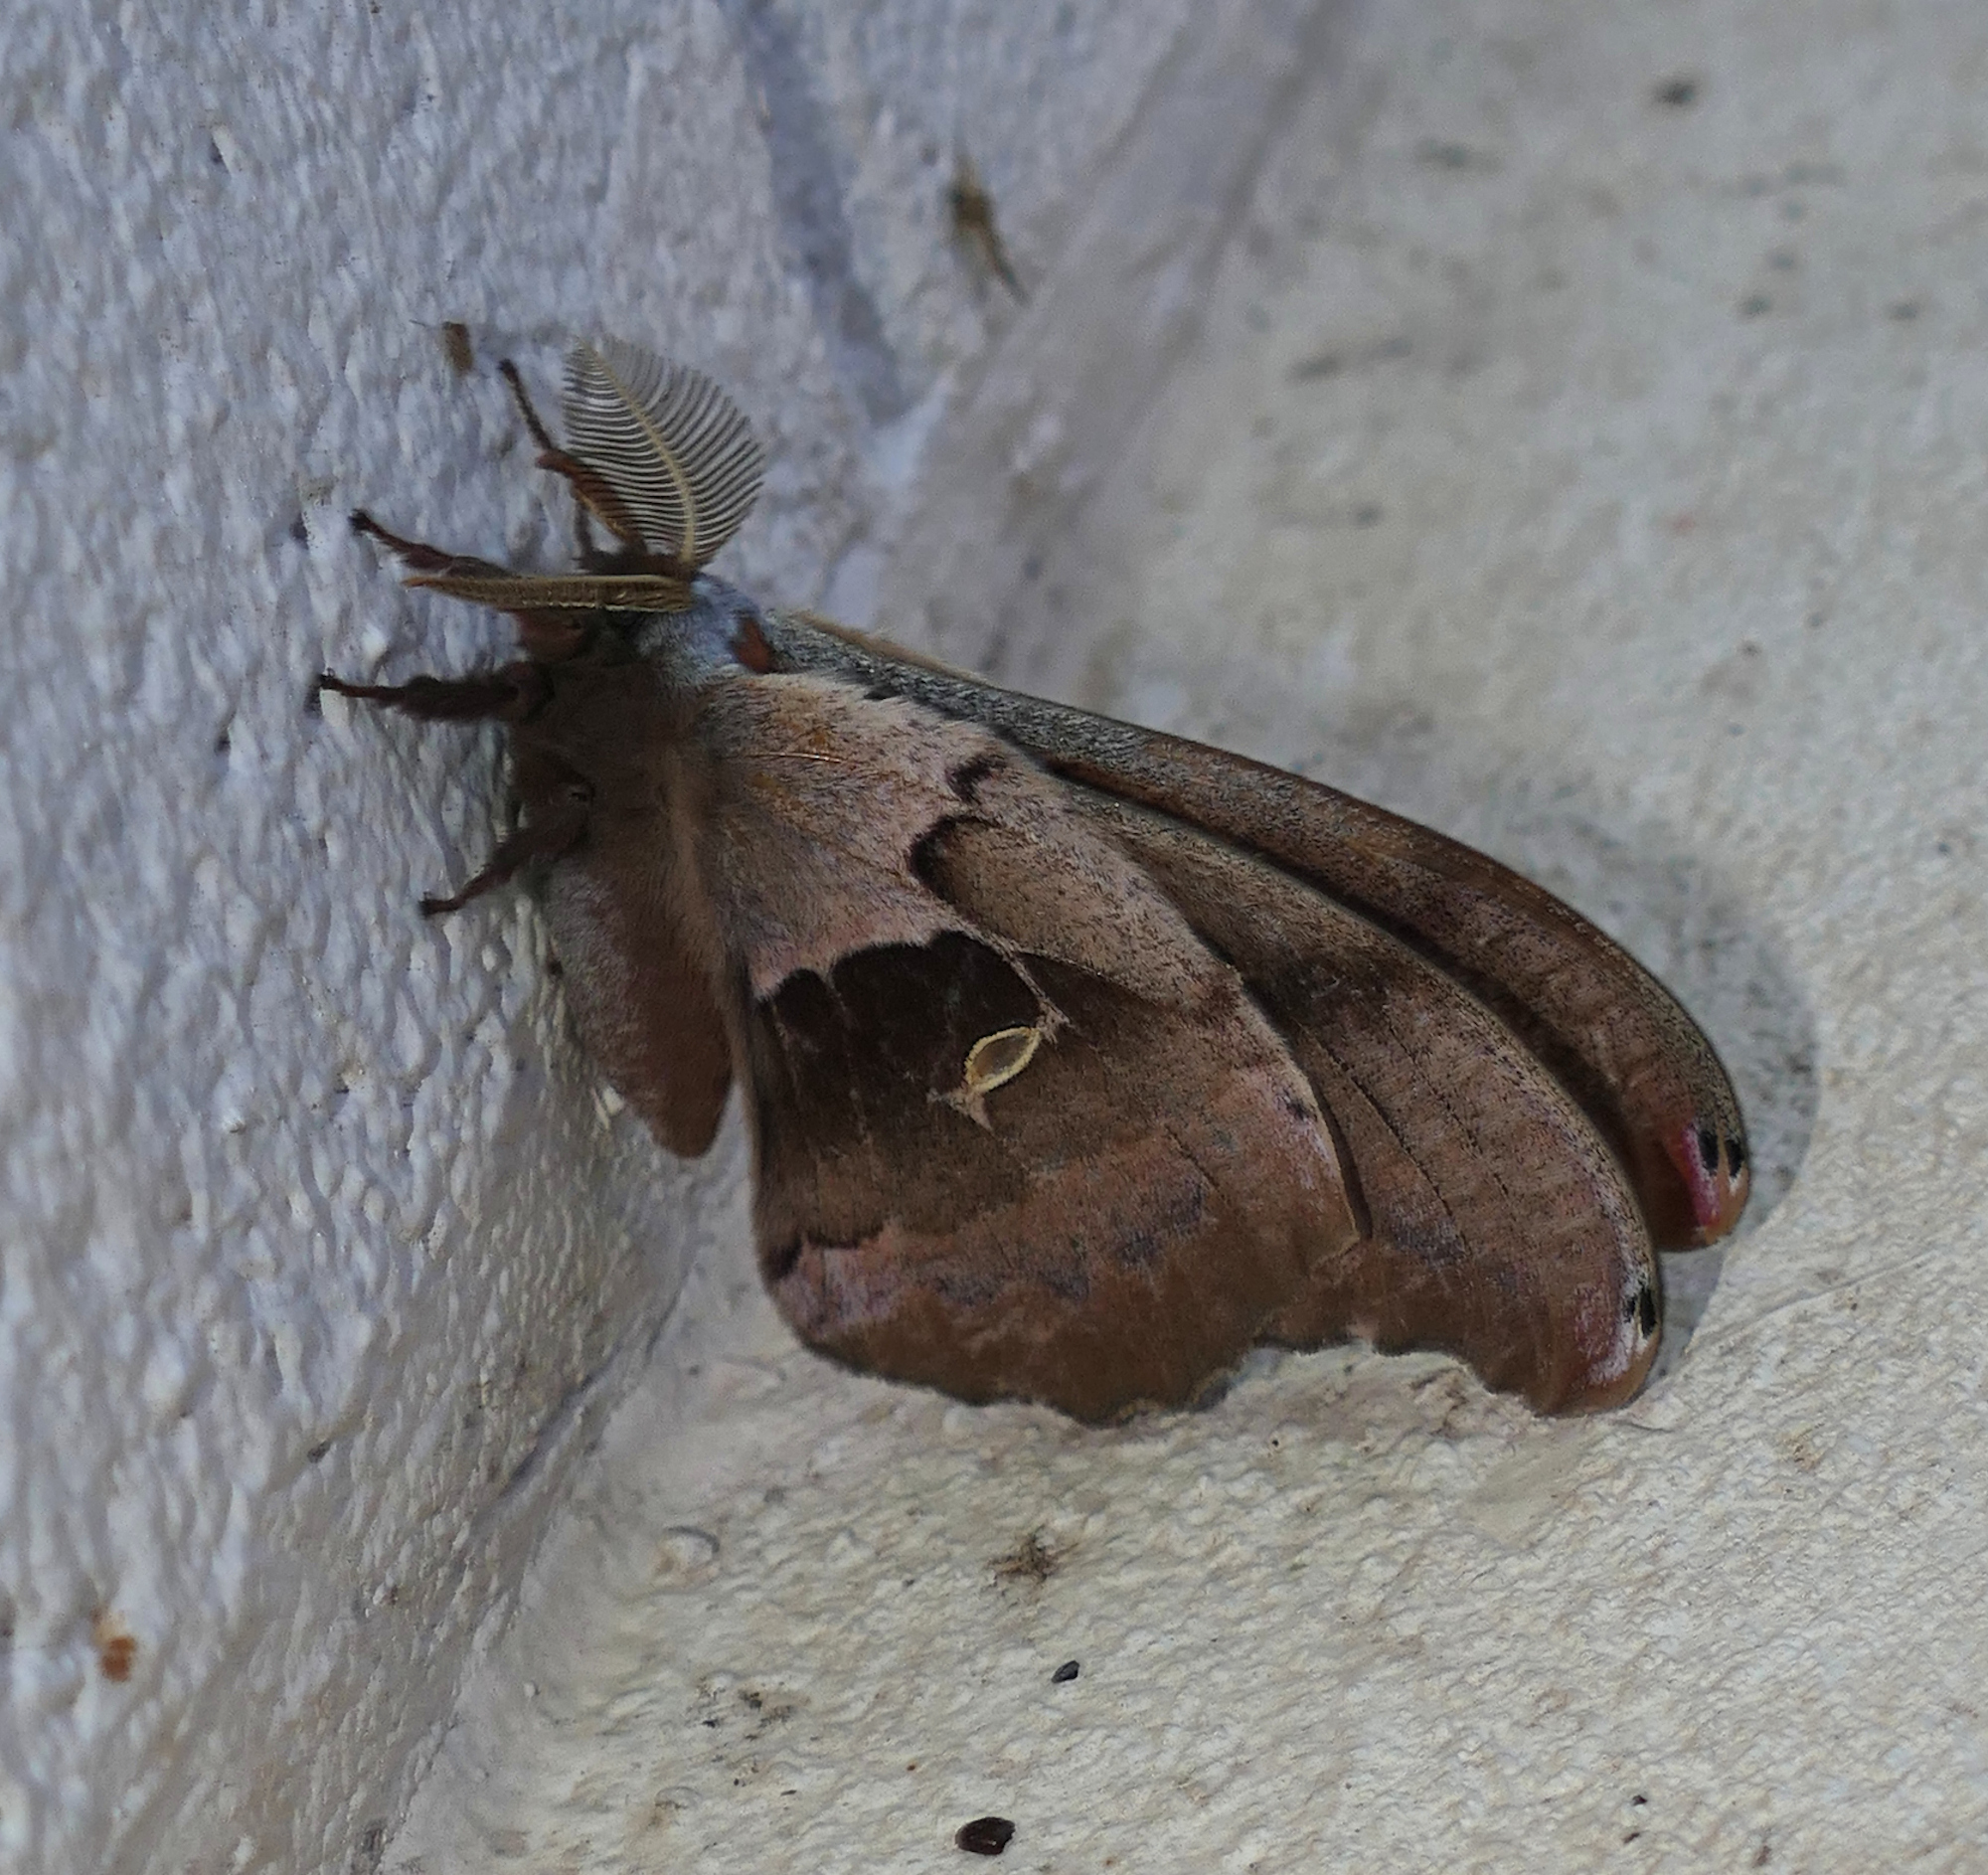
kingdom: Animalia
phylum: Arthropoda
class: Insecta
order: Lepidoptera
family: Saturniidae
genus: Antheraea
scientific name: Antheraea polyphemus
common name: Polyphemus moth
